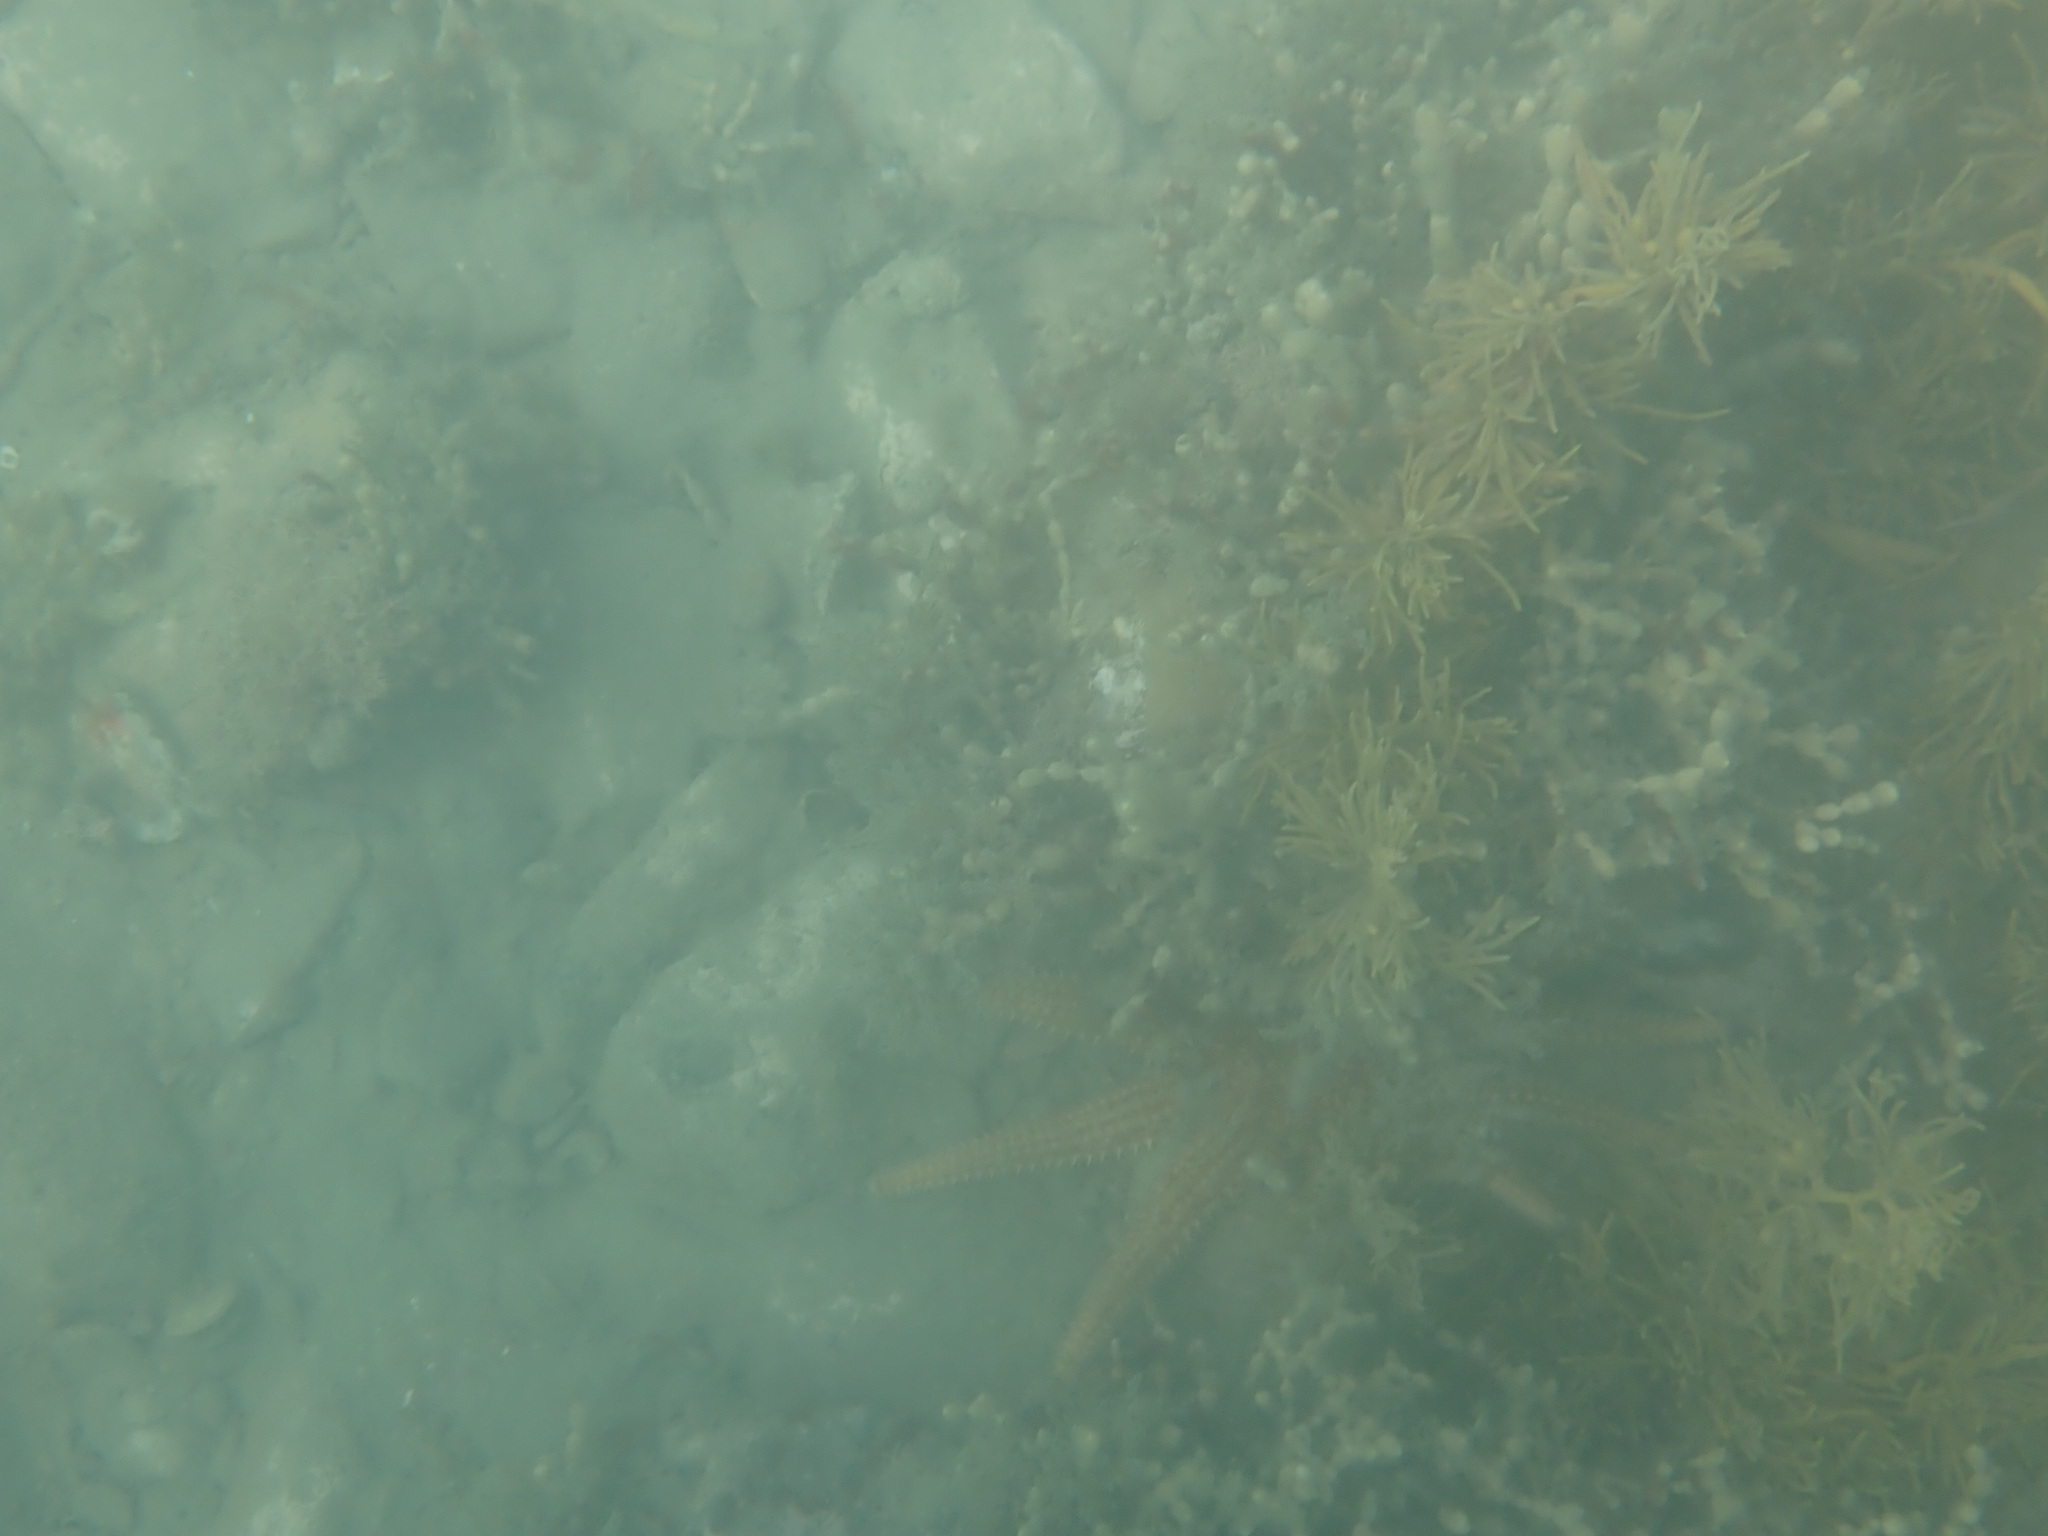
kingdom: Animalia
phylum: Echinodermata
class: Asteroidea
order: Forcipulatida
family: Asteriidae
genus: Coscinasterias
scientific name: Coscinasterias muricata
